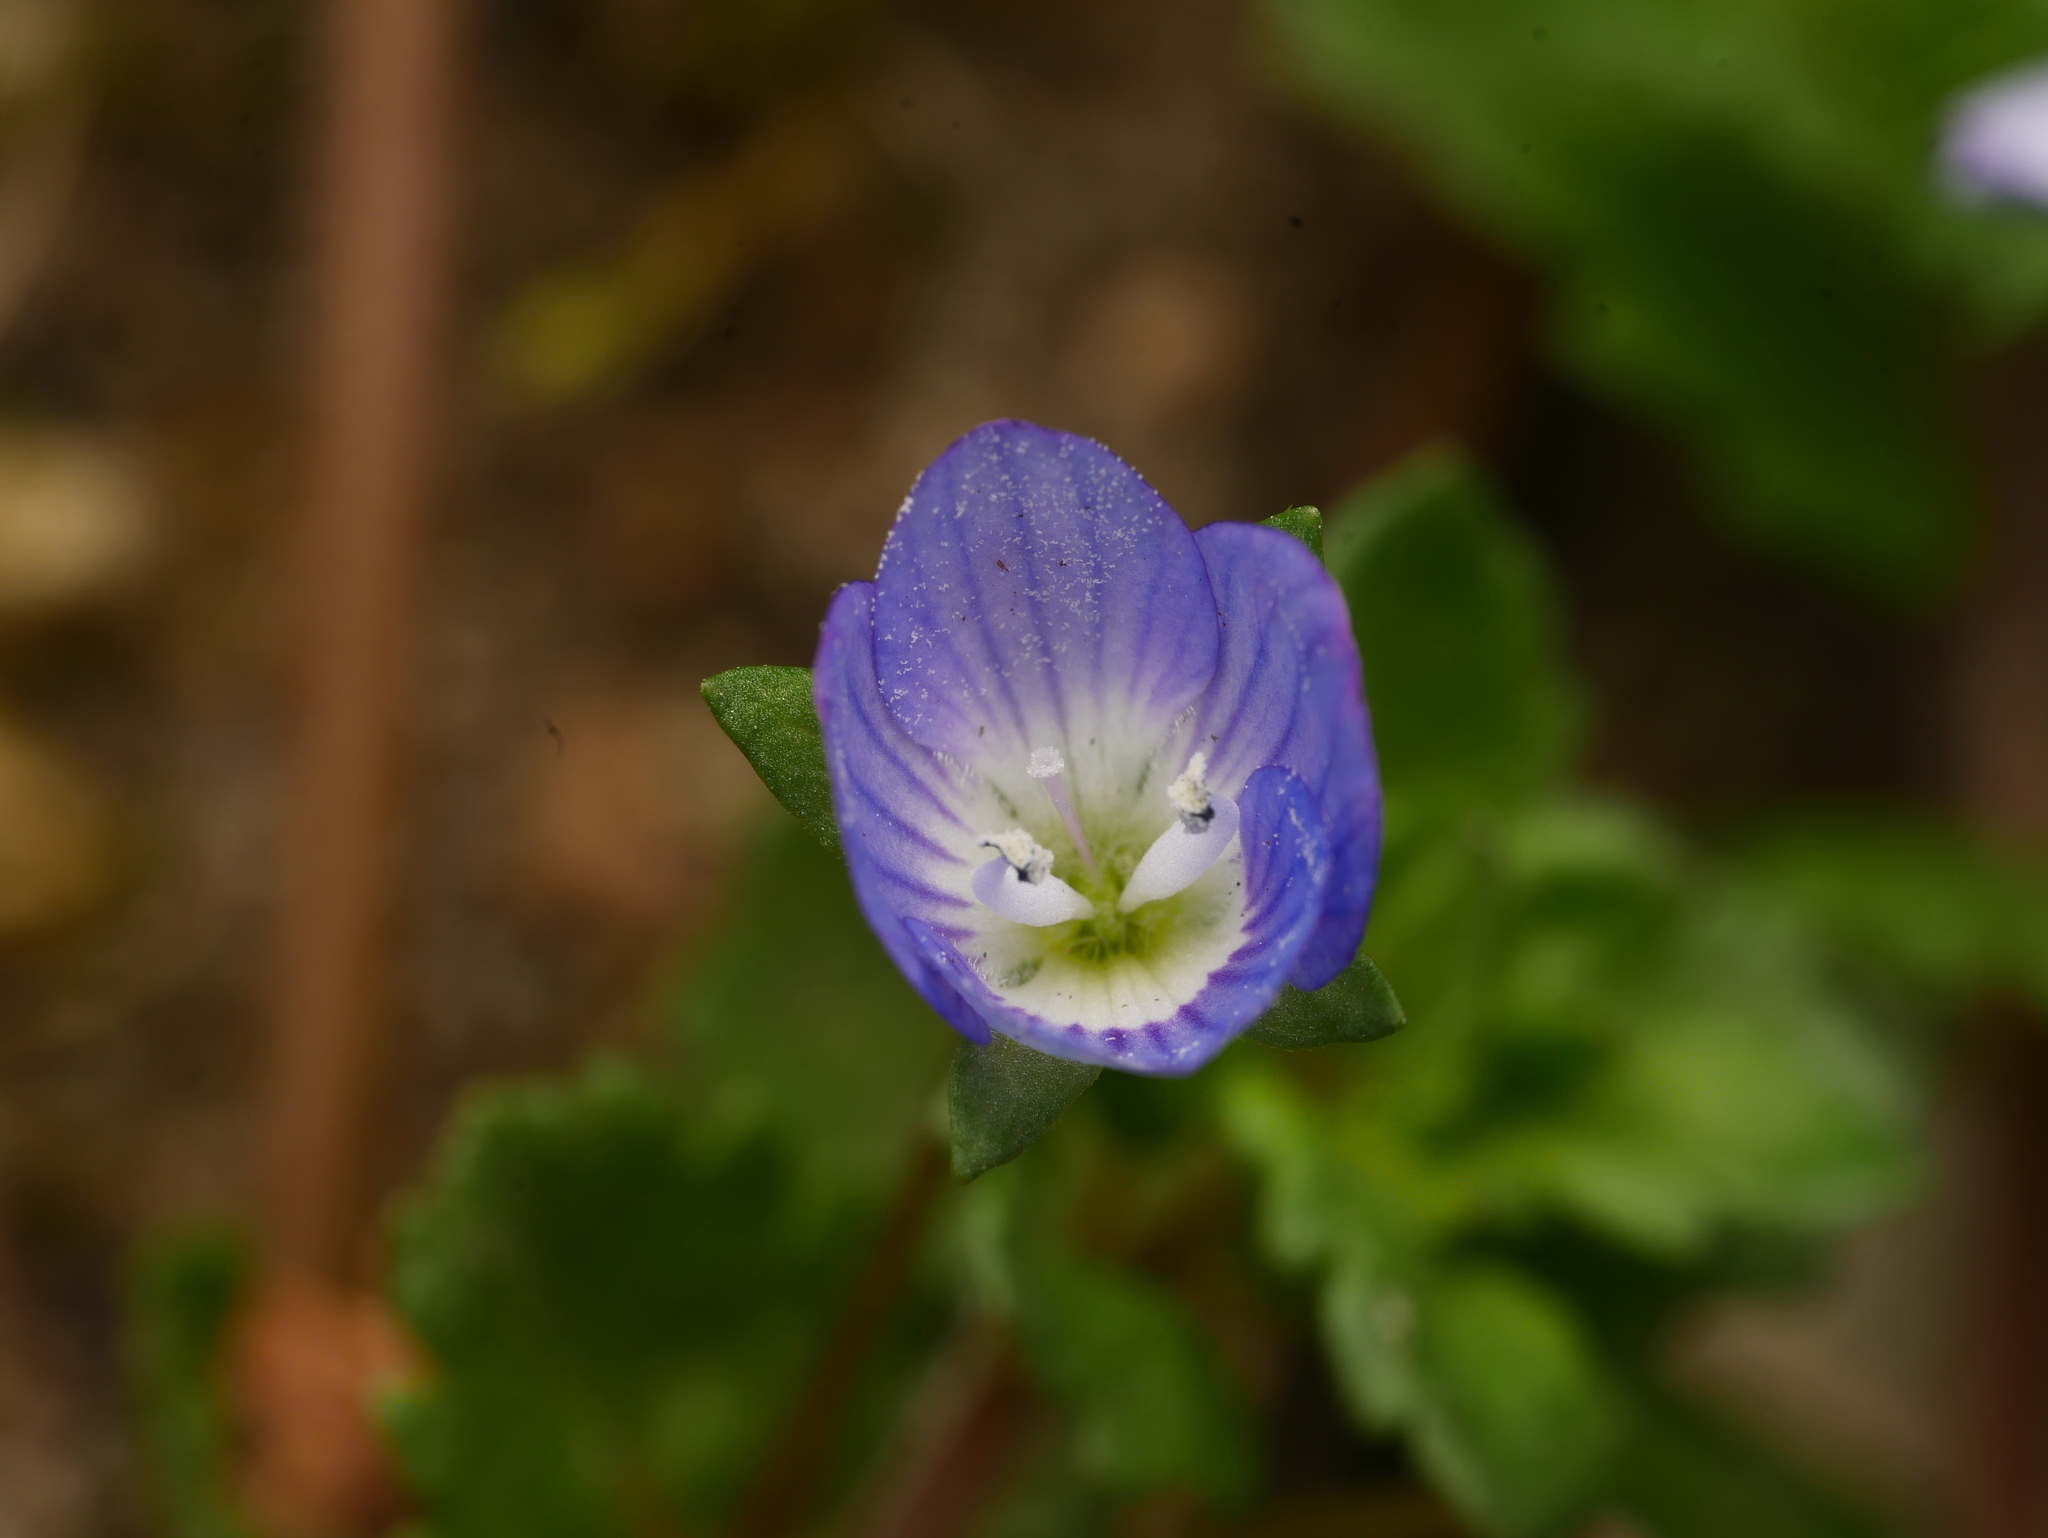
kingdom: Plantae
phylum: Tracheophyta
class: Magnoliopsida
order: Lamiales
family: Plantaginaceae
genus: Veronica
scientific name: Veronica persica
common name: Common field-speedwell
